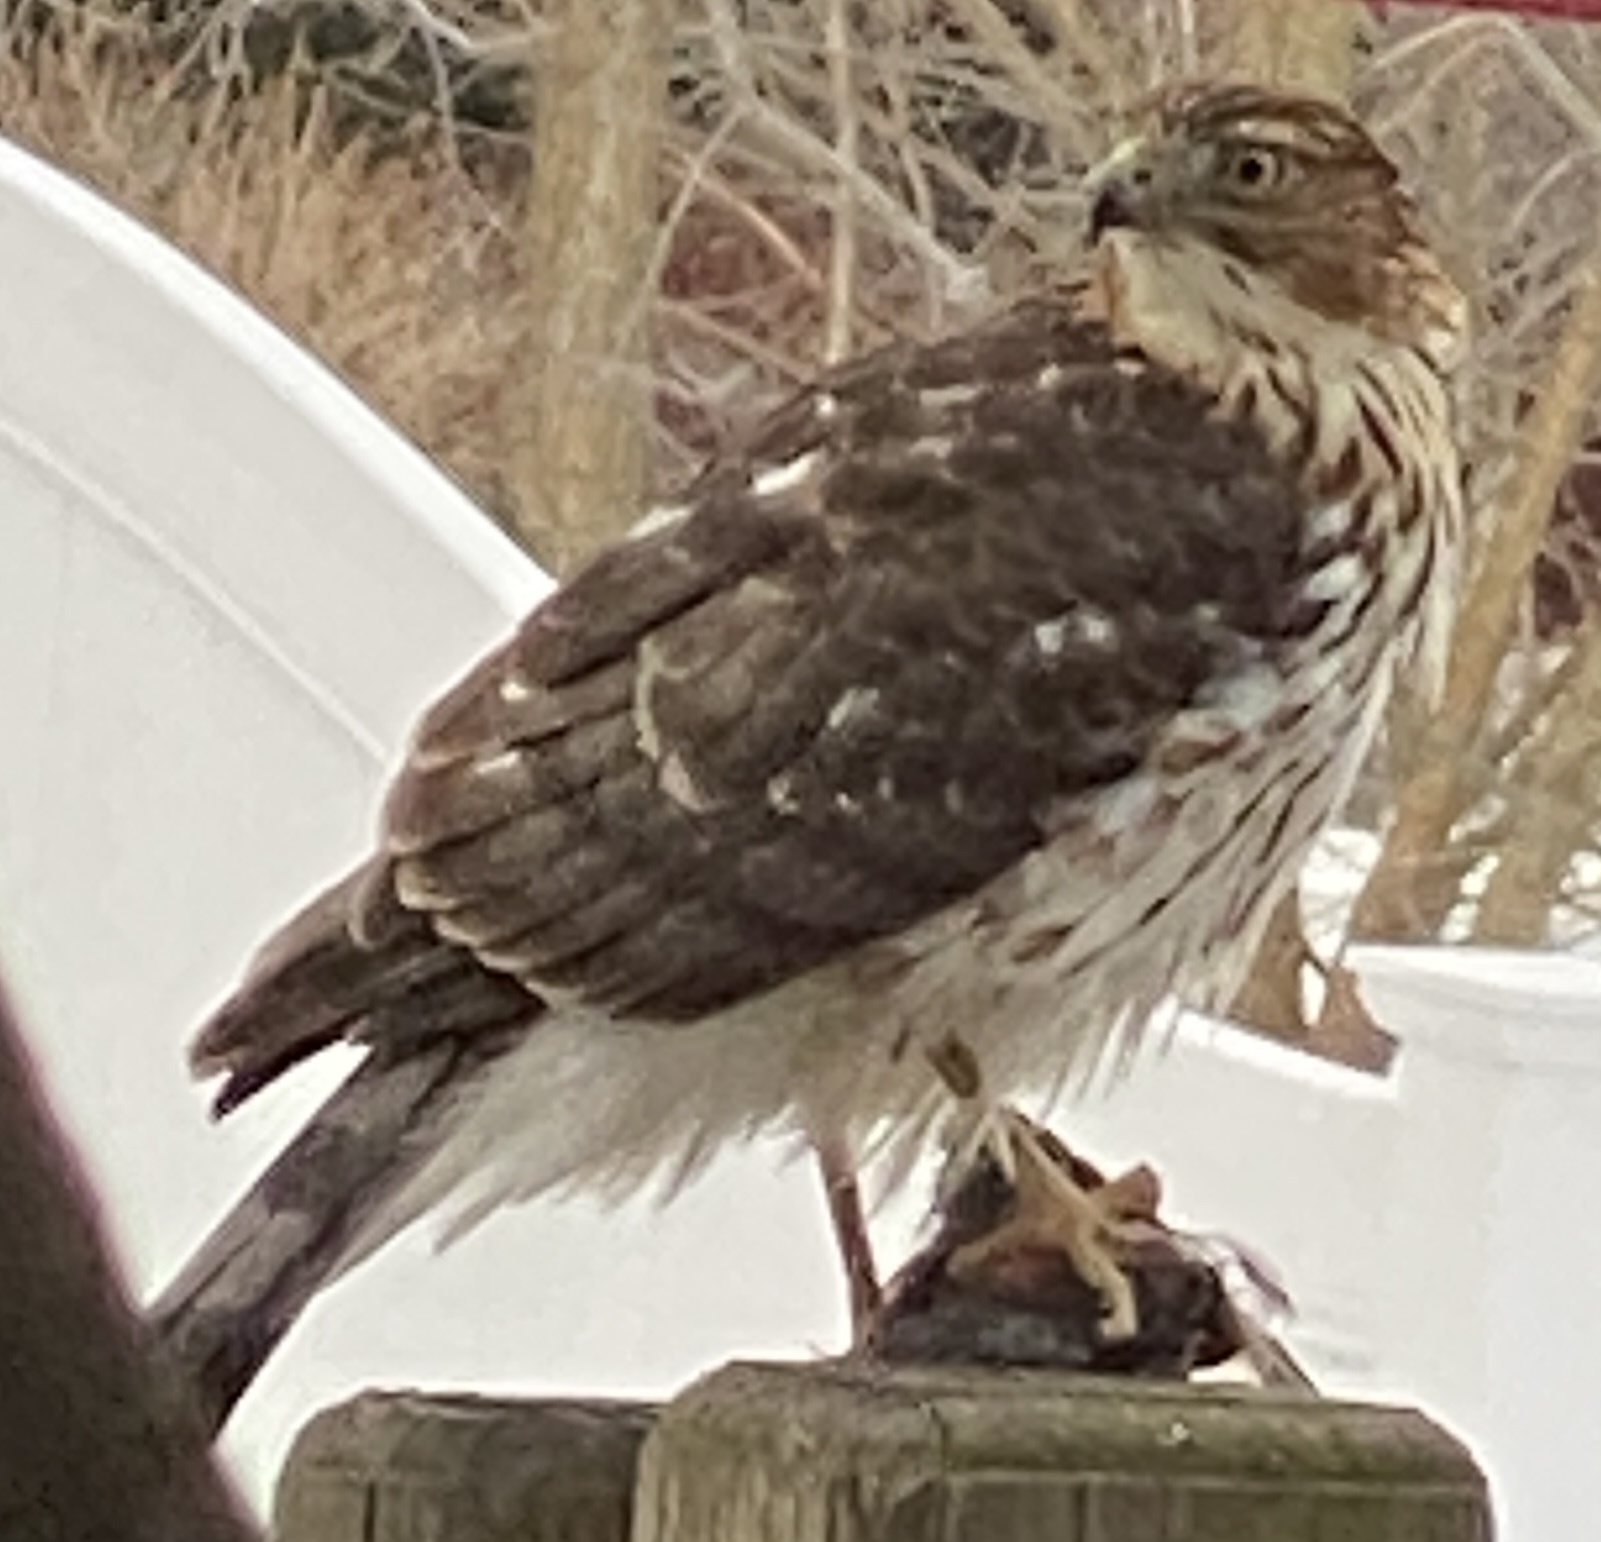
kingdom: Animalia
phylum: Chordata
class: Aves
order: Accipitriformes
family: Accipitridae
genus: Accipiter
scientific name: Accipiter cooperii
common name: Cooper's hawk
